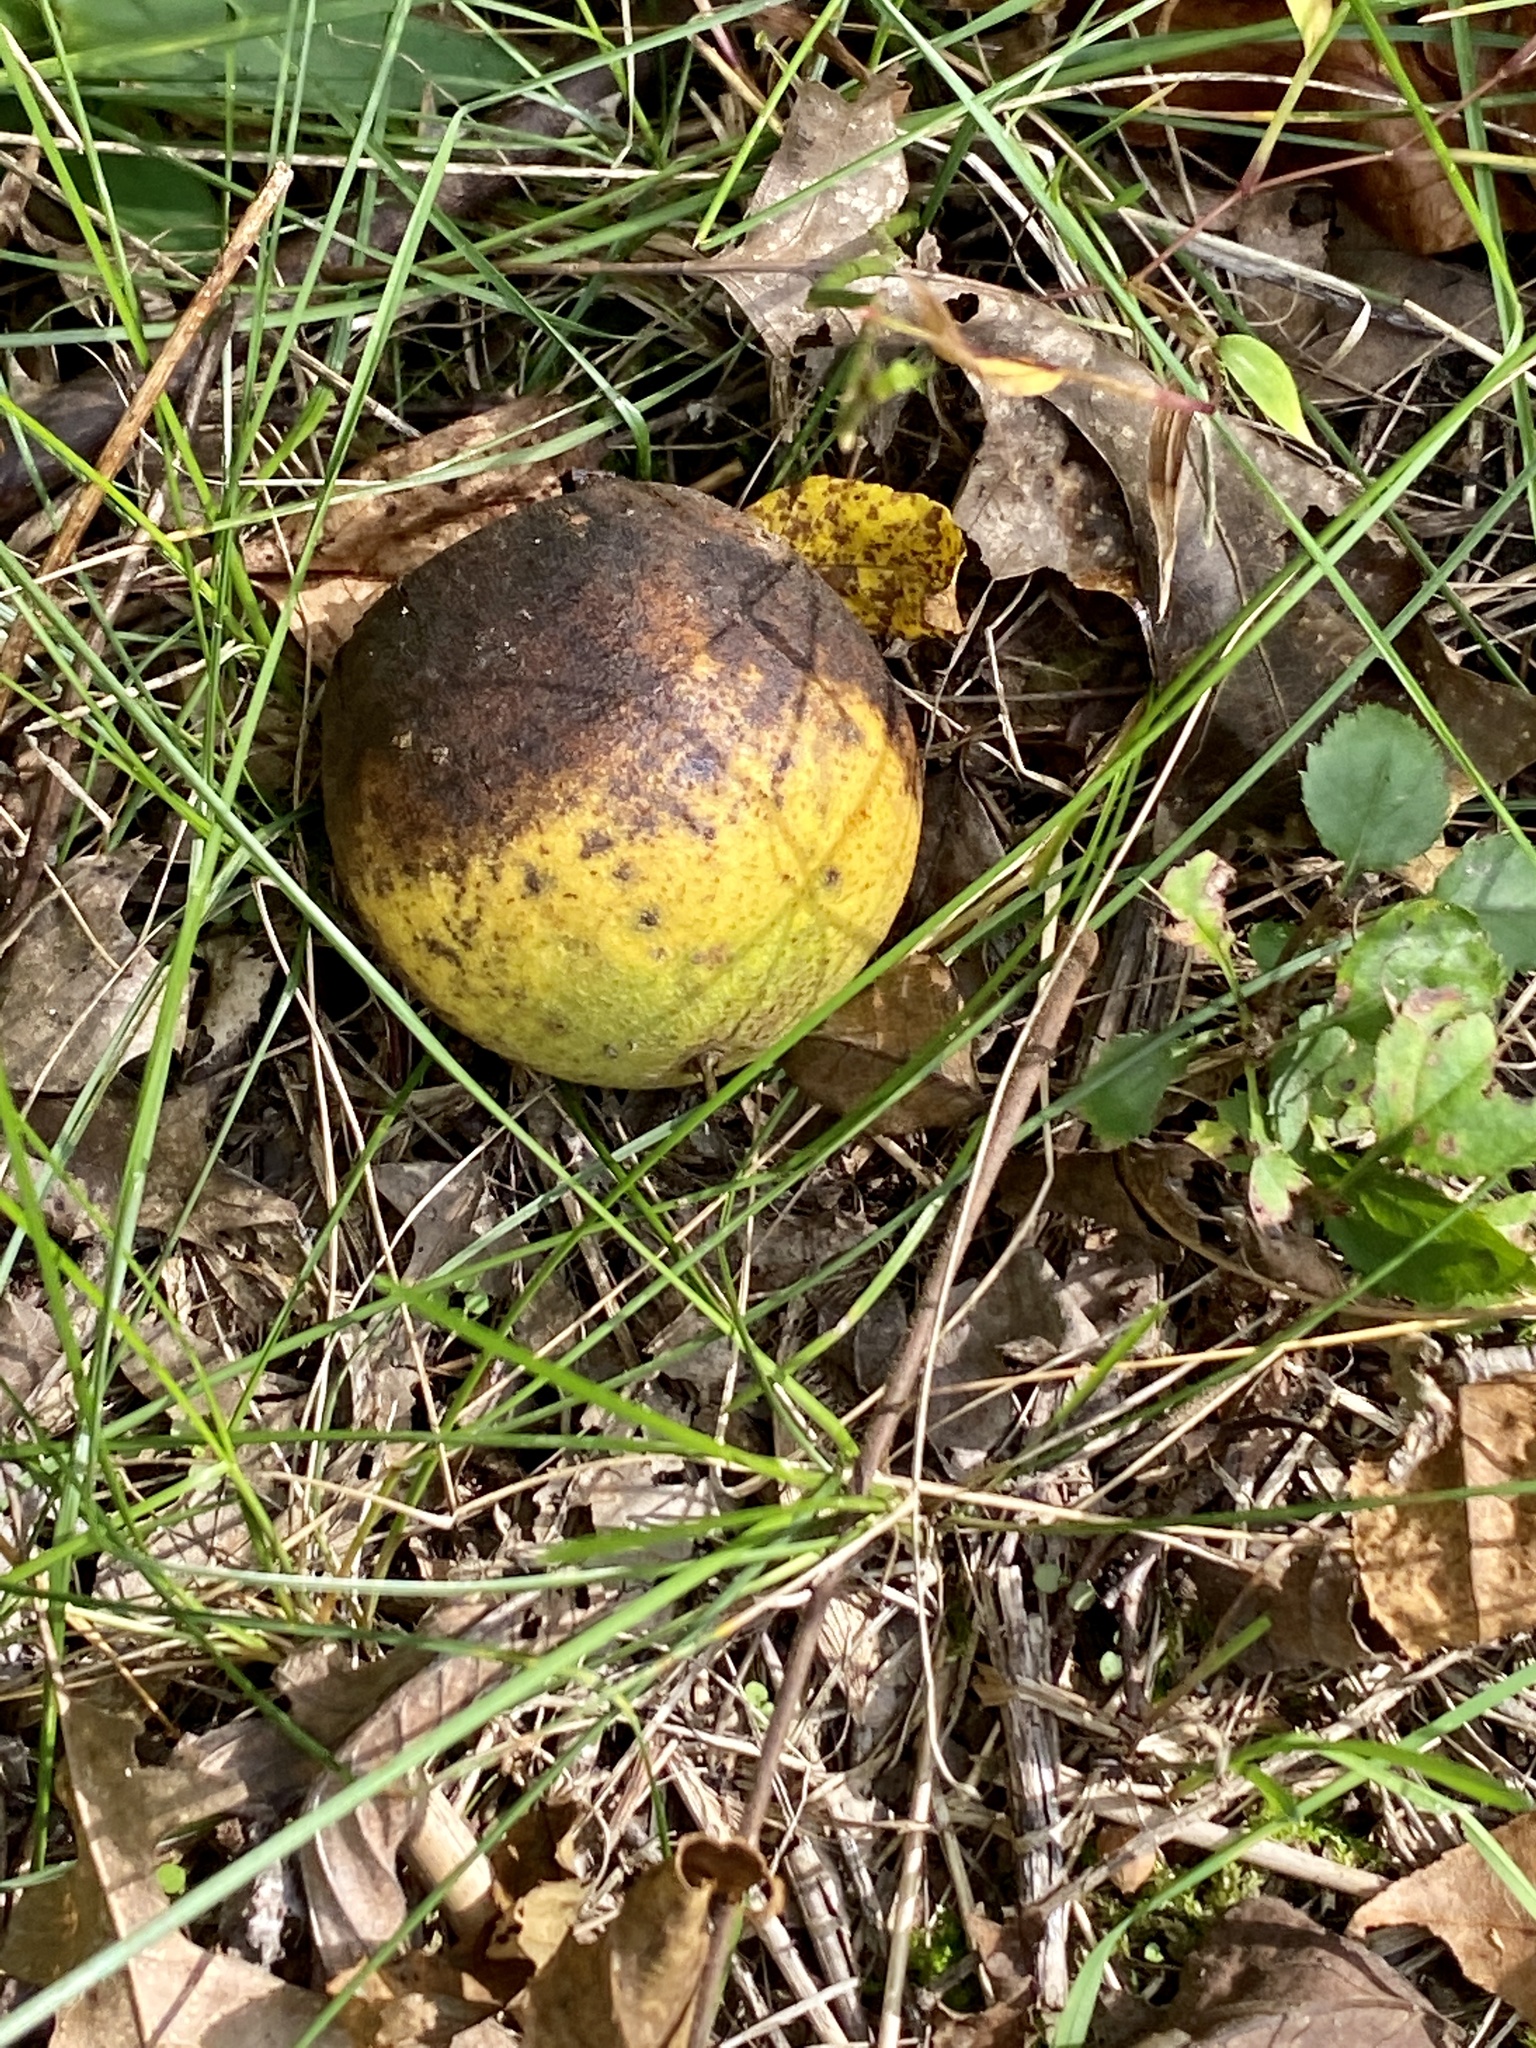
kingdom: Plantae
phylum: Tracheophyta
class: Magnoliopsida
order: Fagales
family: Juglandaceae
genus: Juglans
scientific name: Juglans nigra
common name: Black walnut
